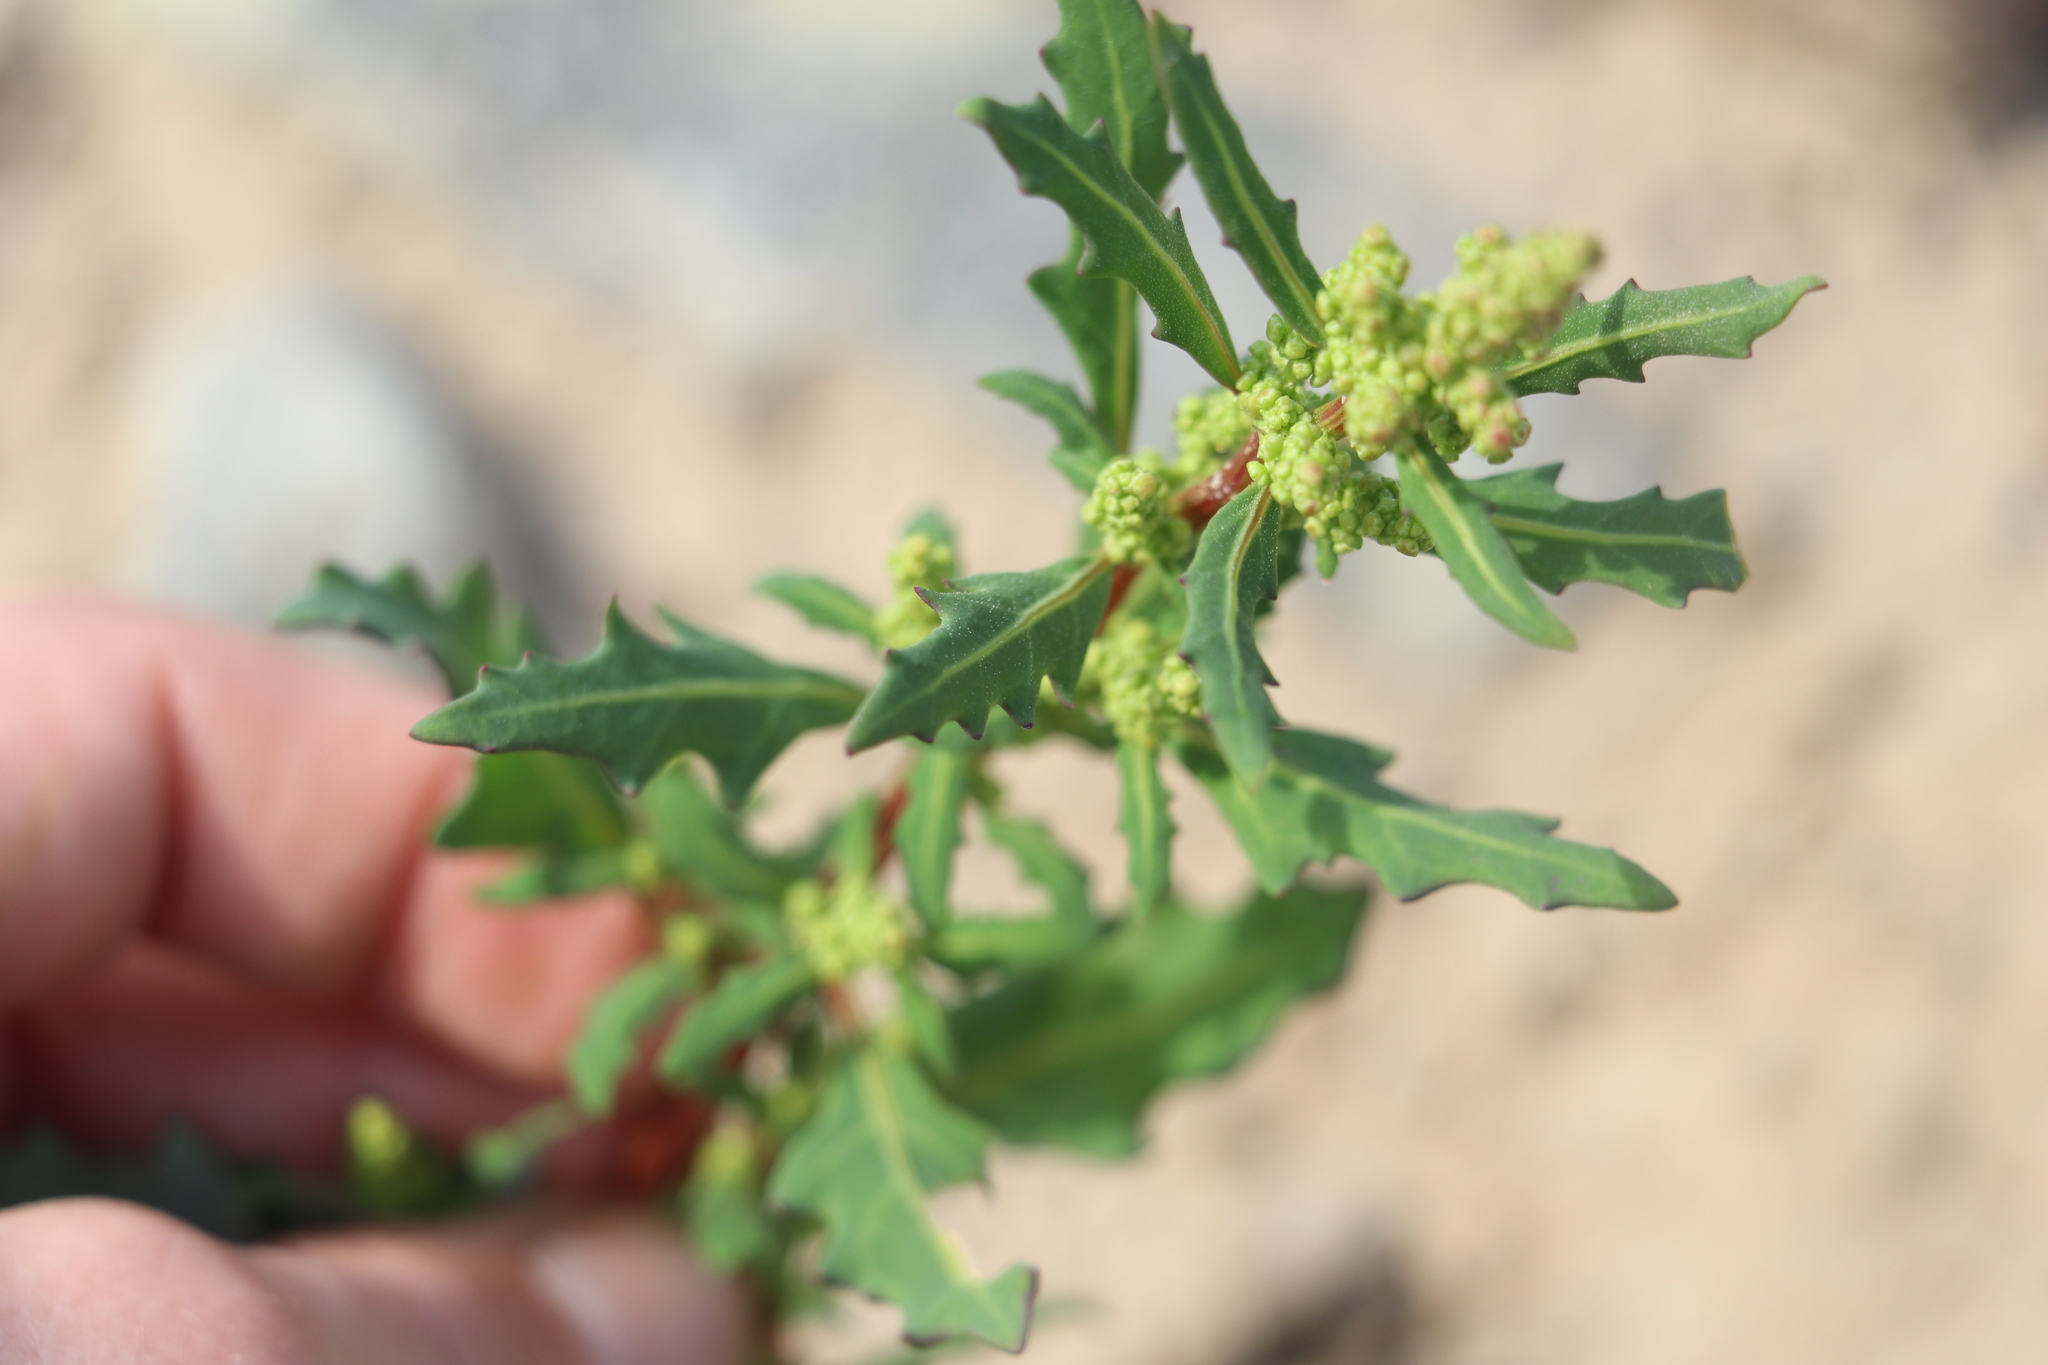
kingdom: Plantae
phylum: Tracheophyta
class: Magnoliopsida
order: Caryophyllales
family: Amaranthaceae
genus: Oxybasis
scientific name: Oxybasis glauca
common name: Glaucous goosefoot
